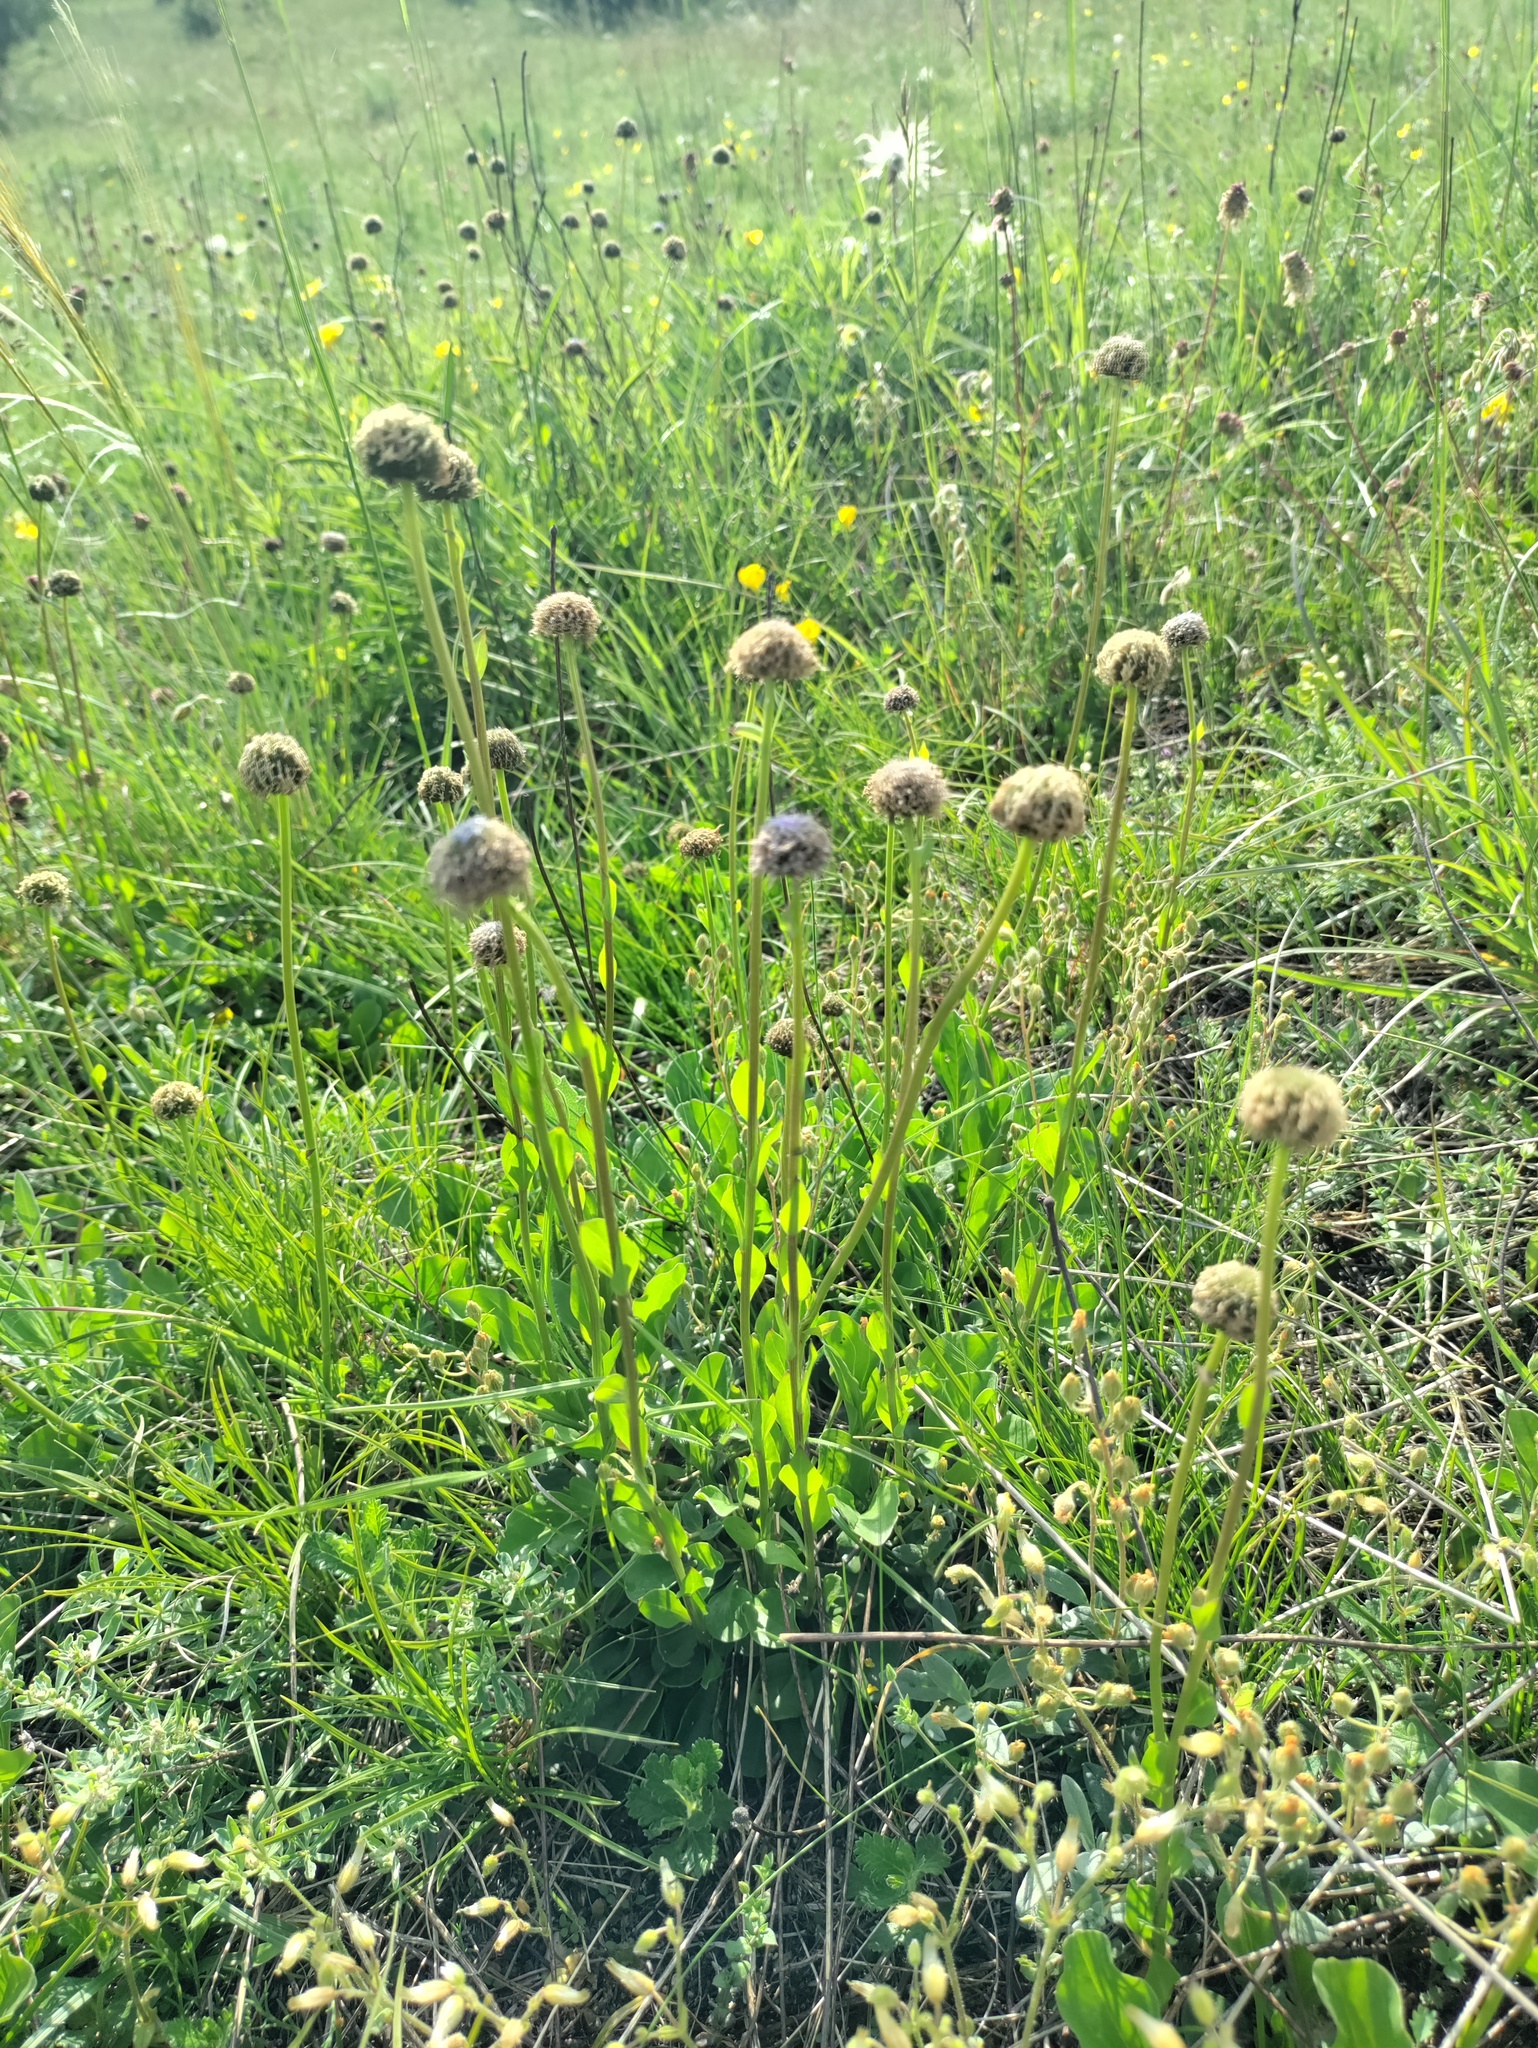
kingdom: Plantae
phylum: Tracheophyta
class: Magnoliopsida
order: Lamiales
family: Plantaginaceae
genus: Globularia
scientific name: Globularia bisnagarica
